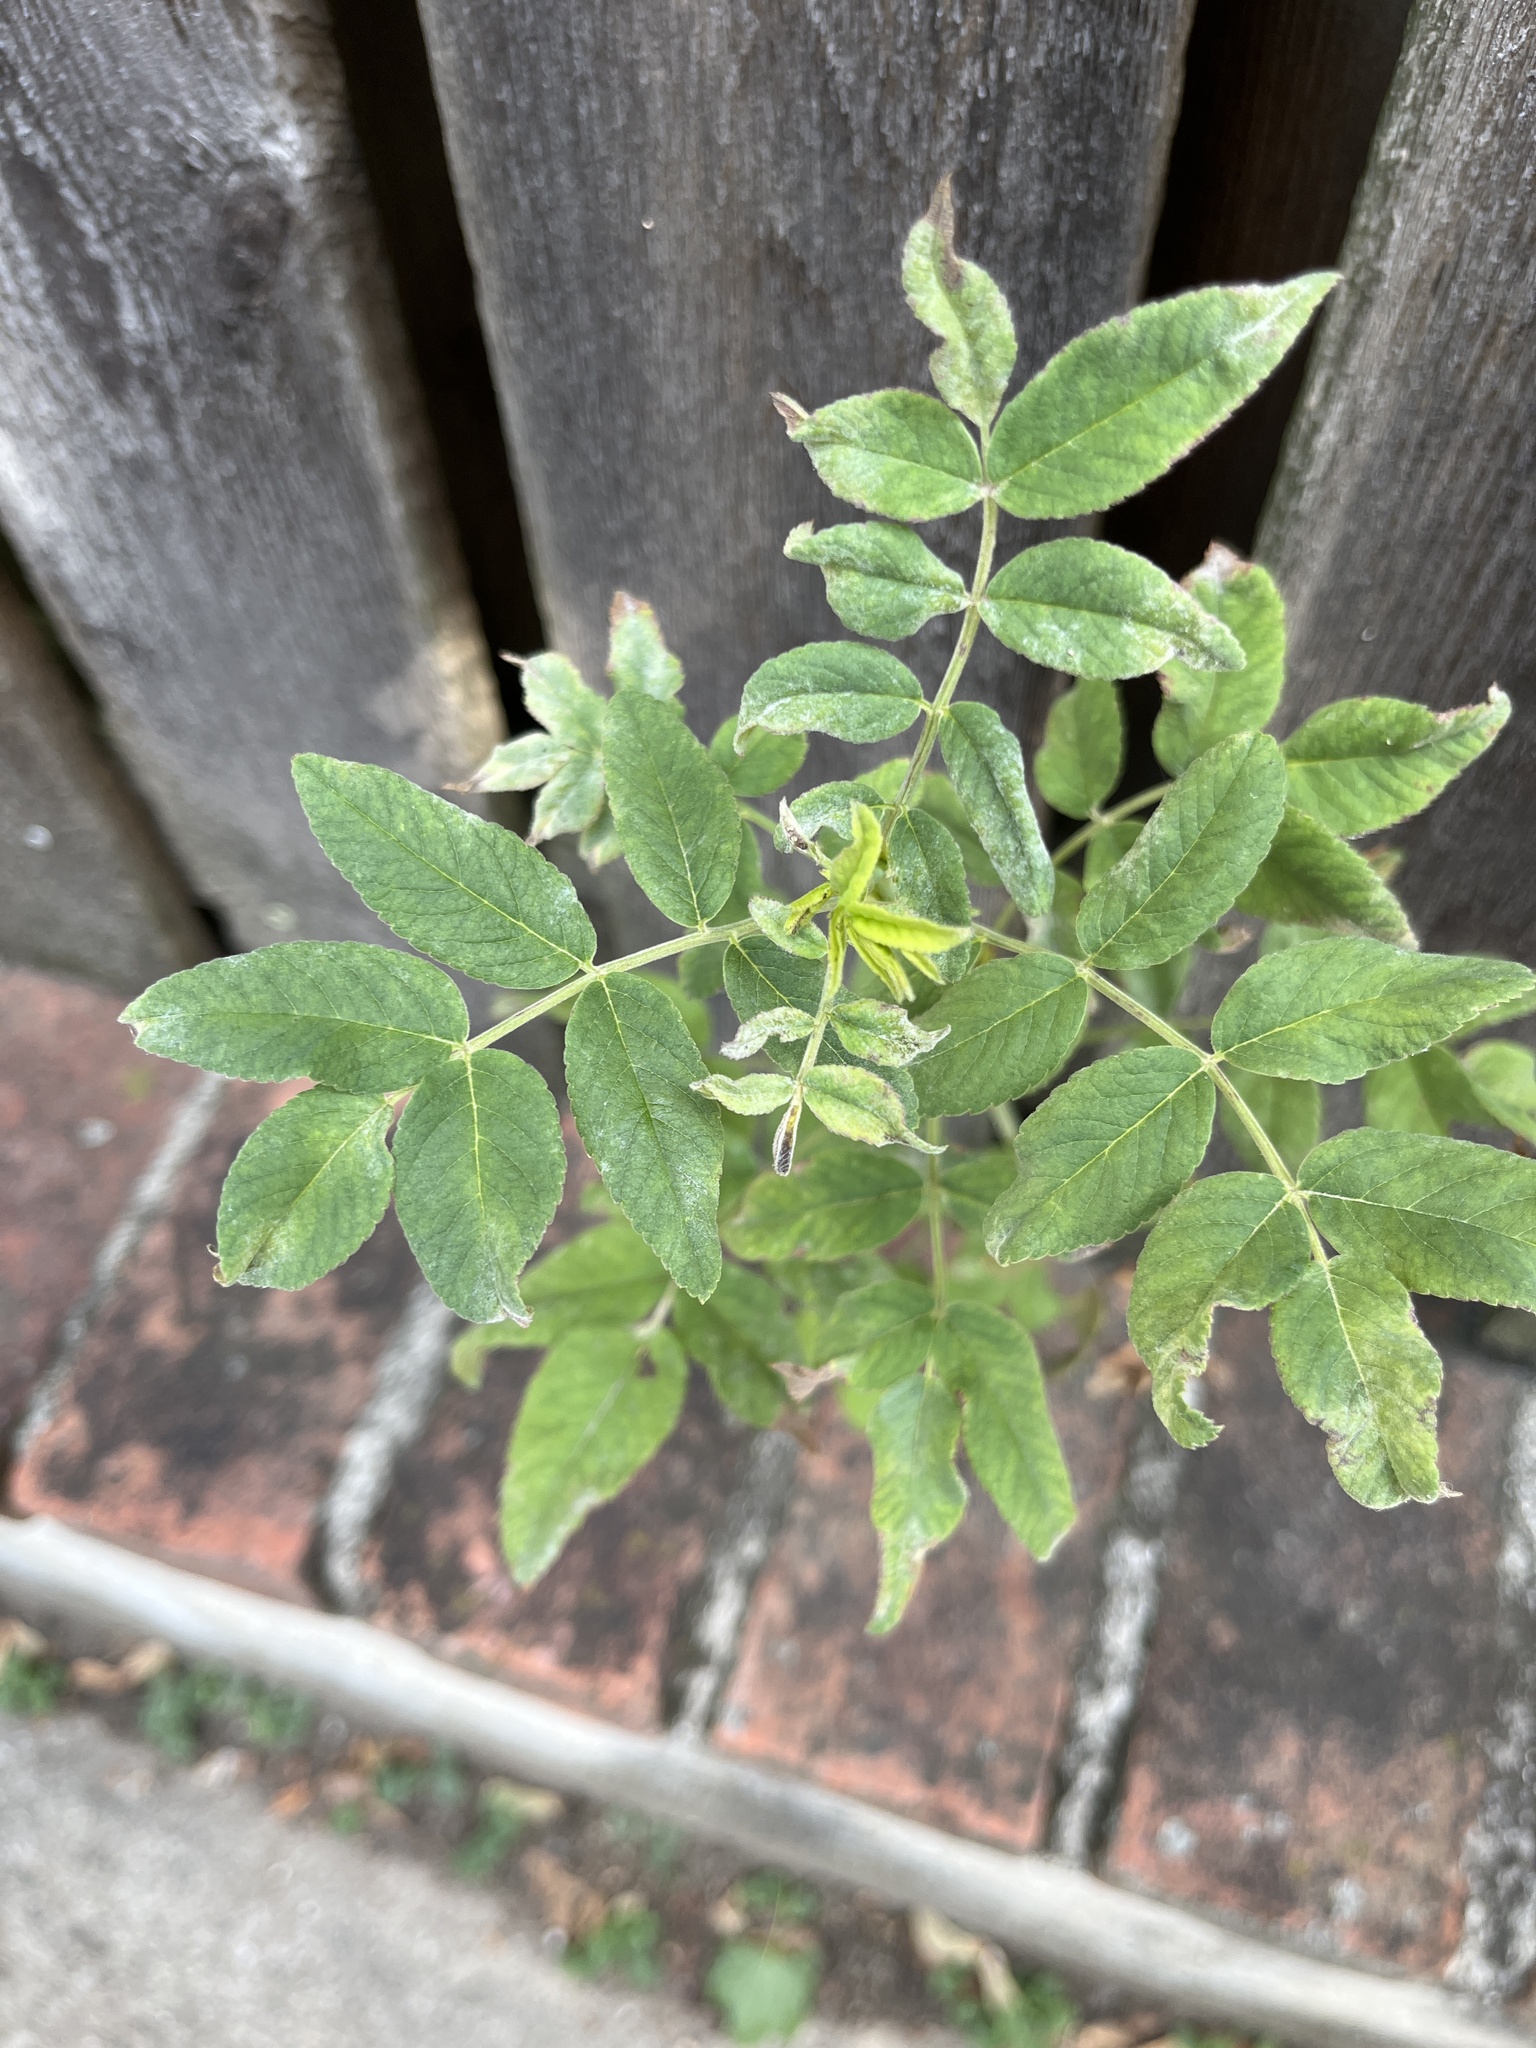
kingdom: Plantae
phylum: Tracheophyta
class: Magnoliopsida
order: Rosales
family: Rosaceae
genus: Rosa
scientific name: Rosa rugosa
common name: Japanese rose
